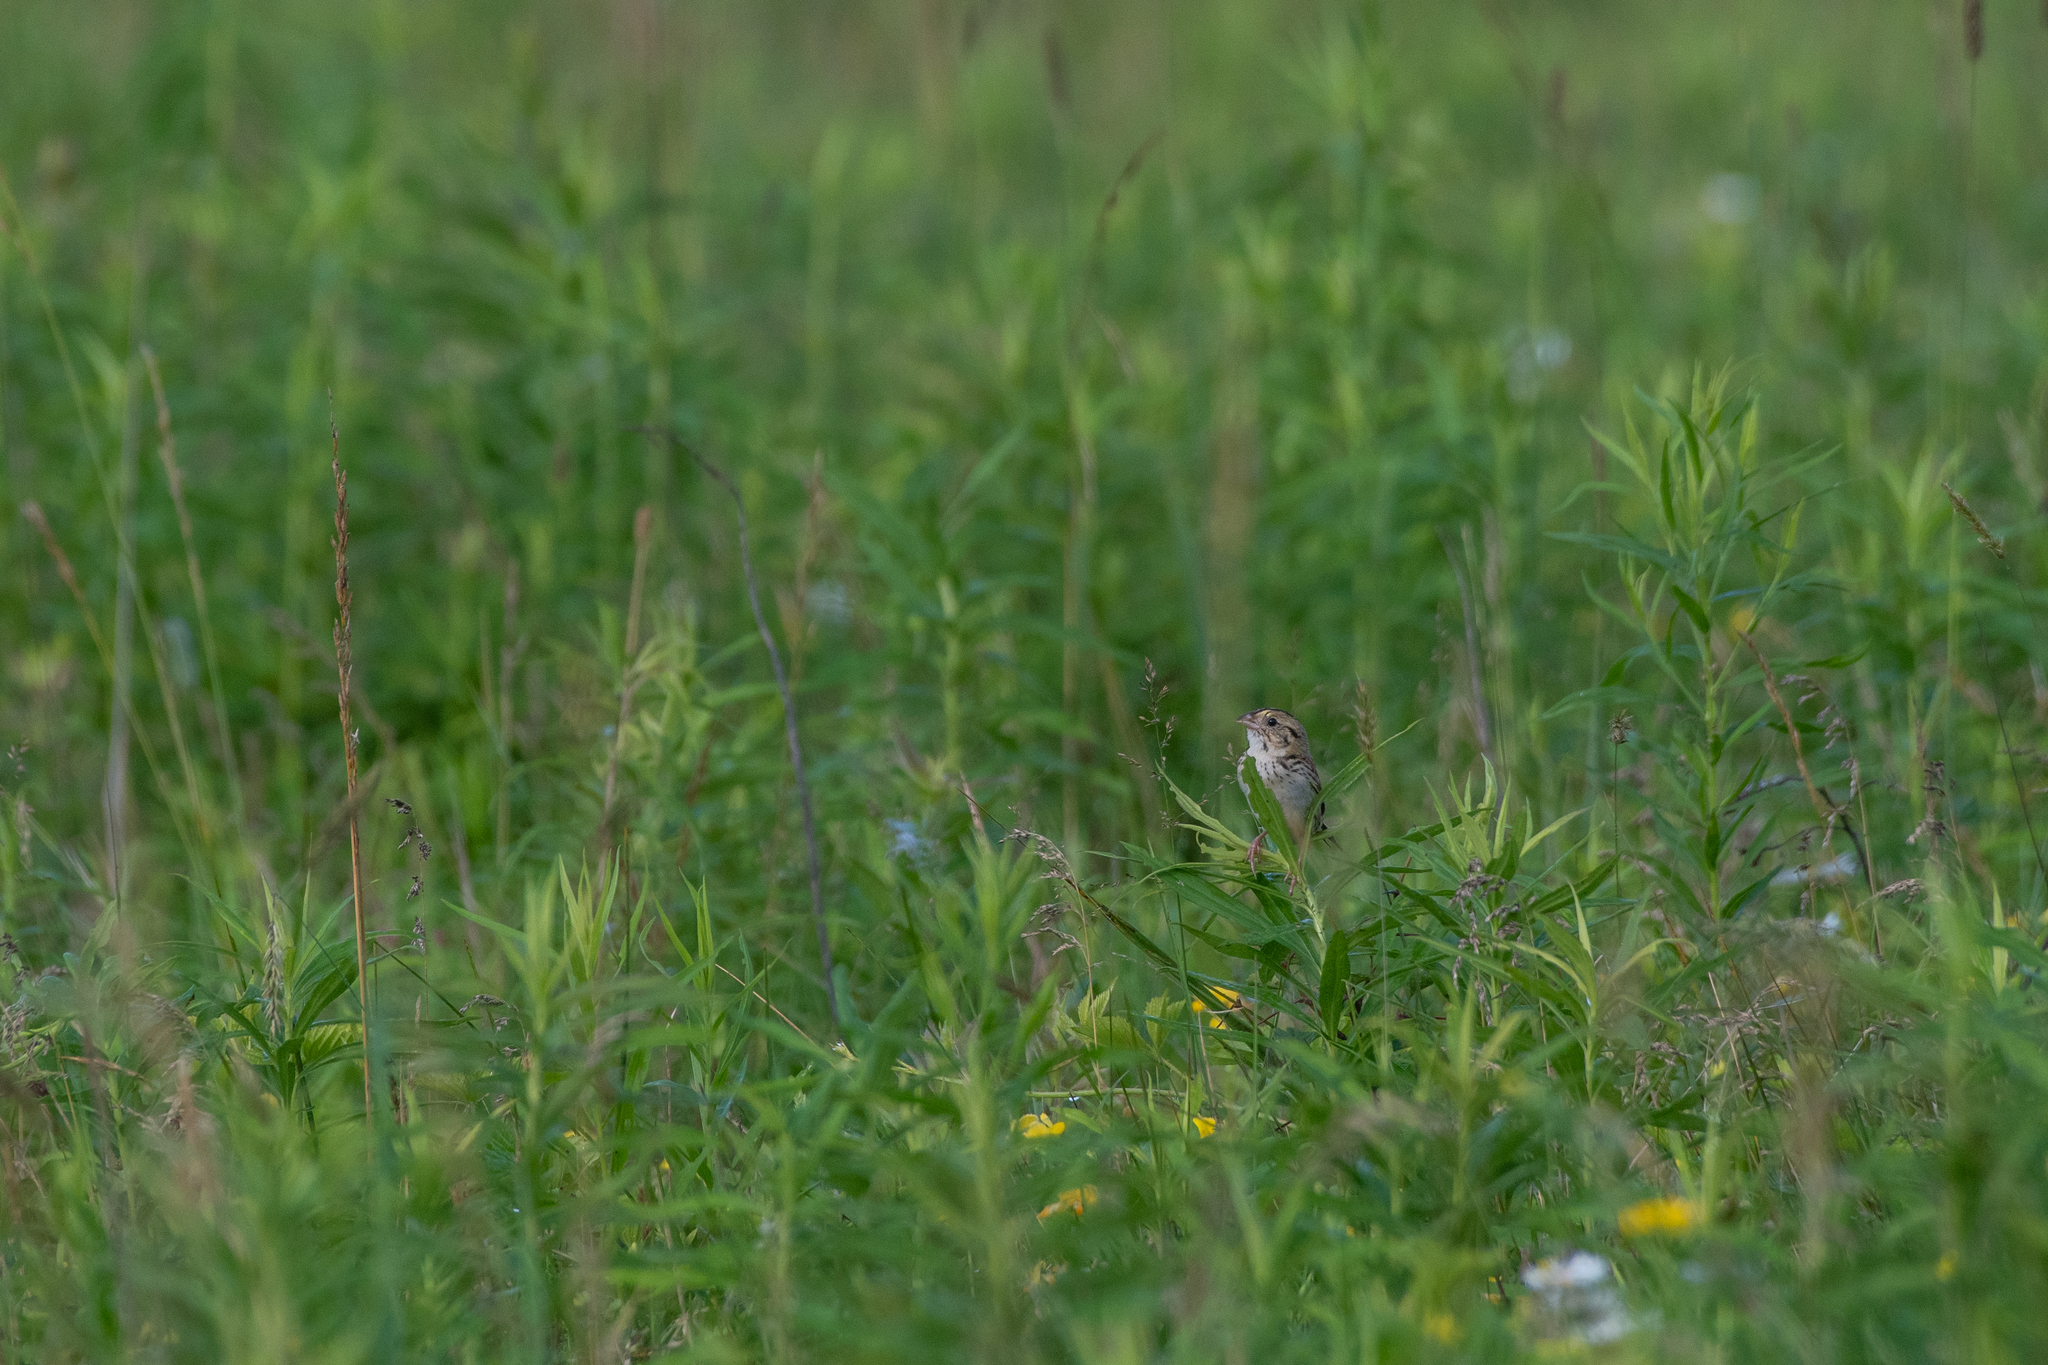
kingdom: Animalia
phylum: Chordata
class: Aves
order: Passeriformes
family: Passerellidae
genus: Centronyx
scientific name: Centronyx henslowii
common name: Henslow's sparrow
